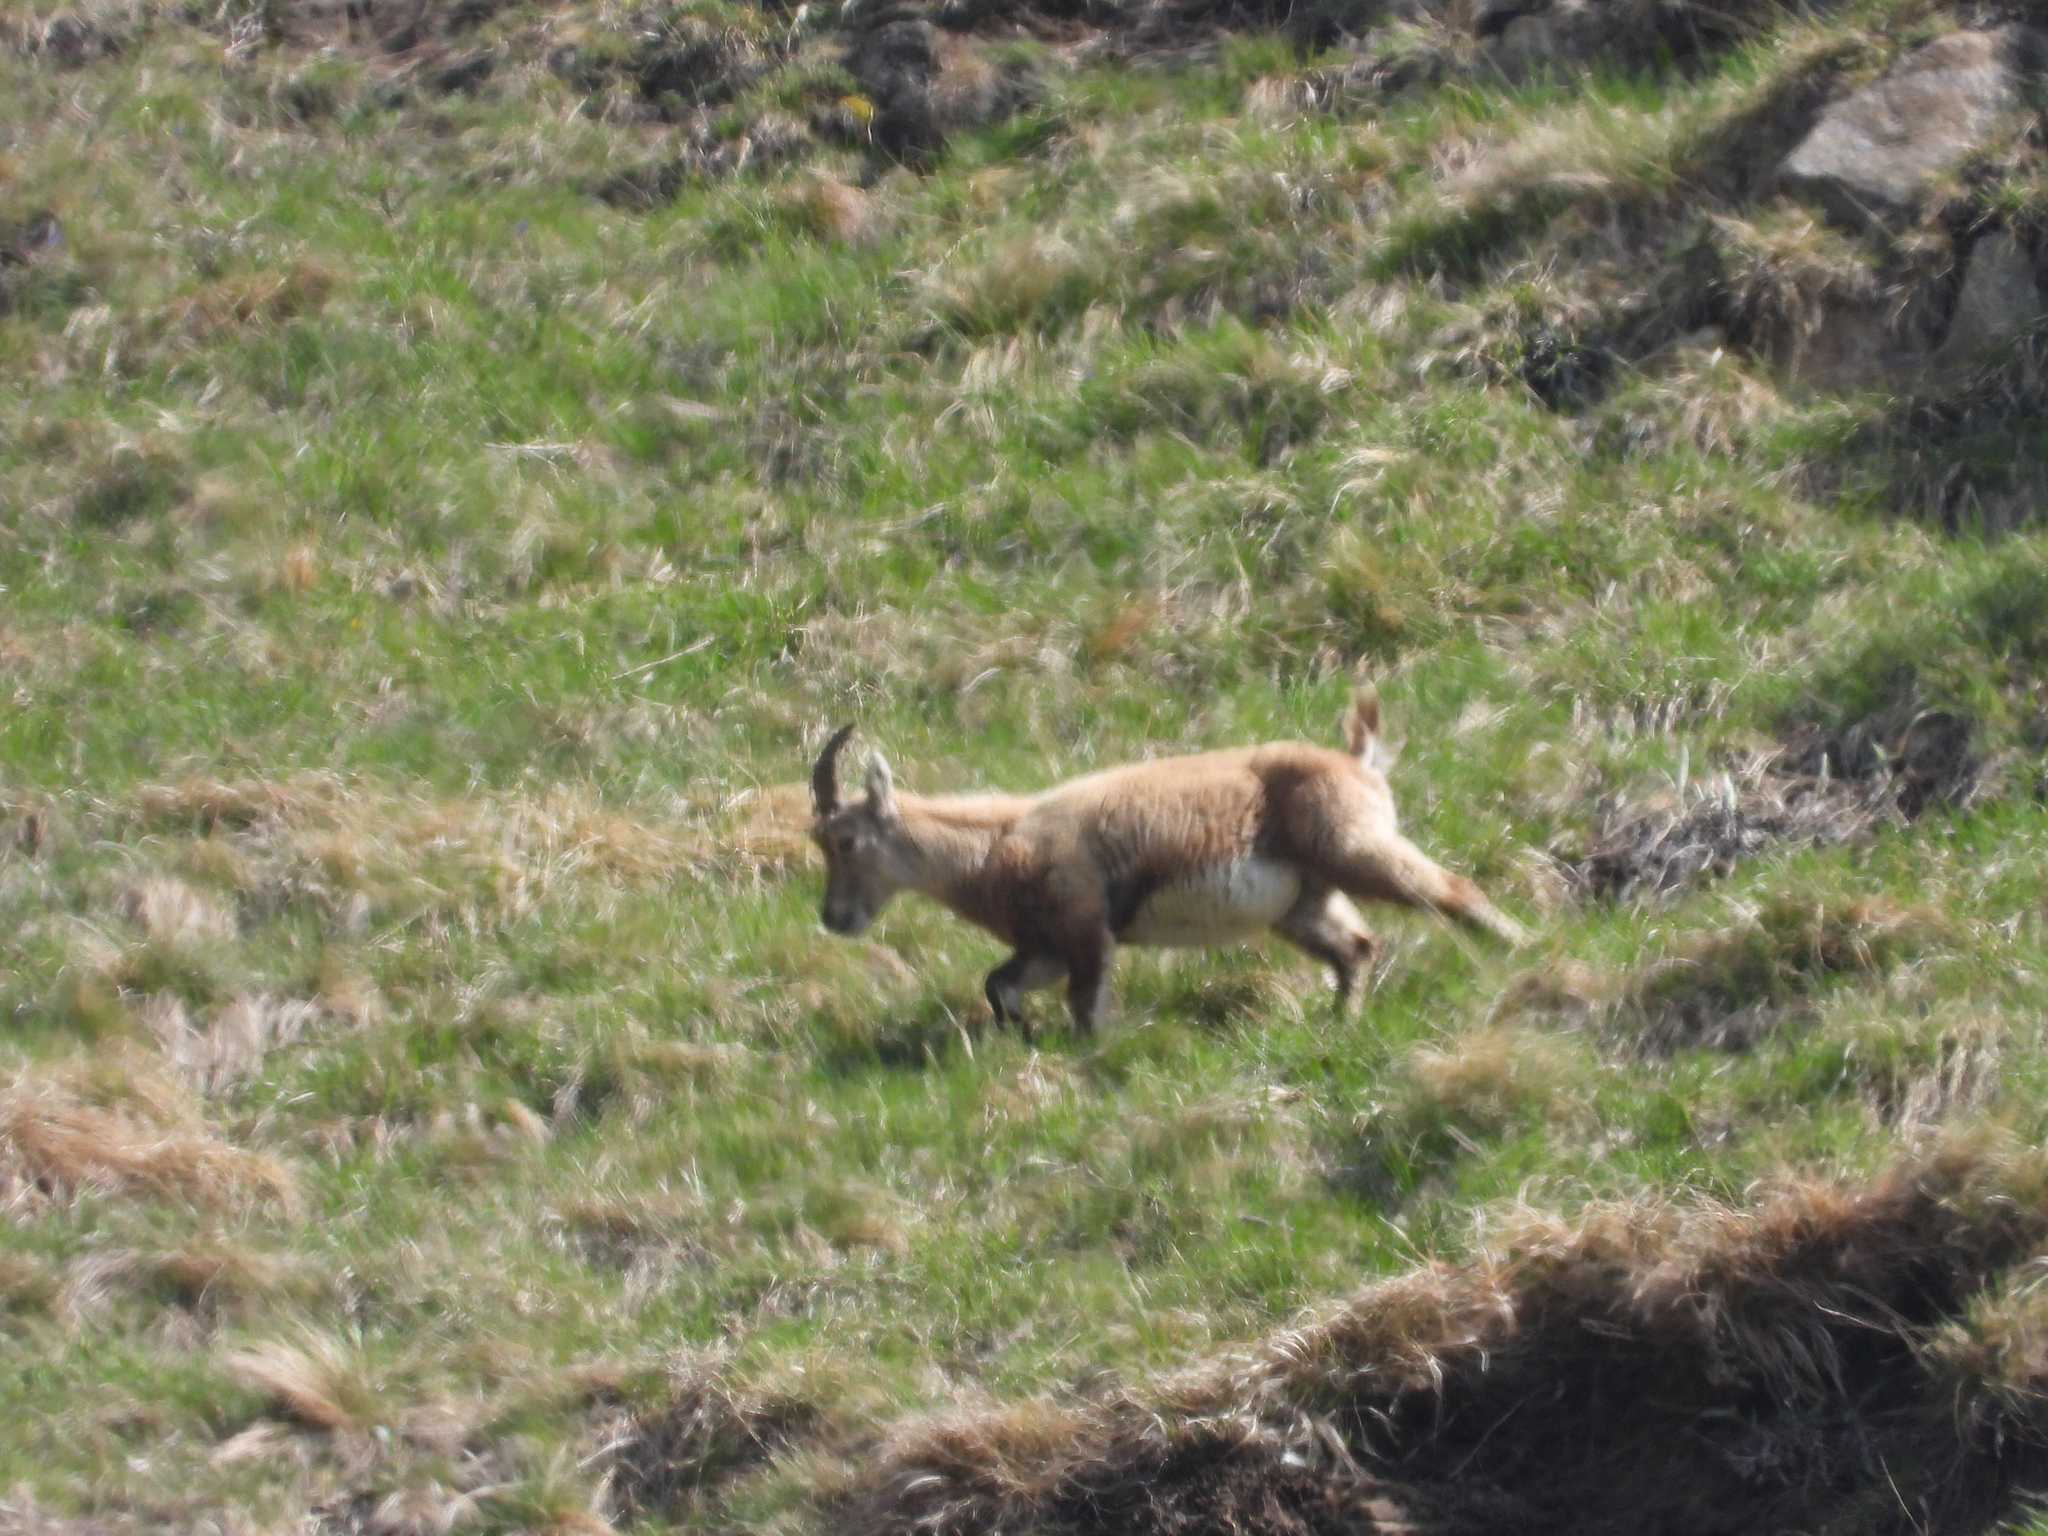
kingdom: Animalia
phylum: Chordata
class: Mammalia
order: Artiodactyla
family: Bovidae
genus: Capra
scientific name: Capra ibex
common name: Alpine ibex
